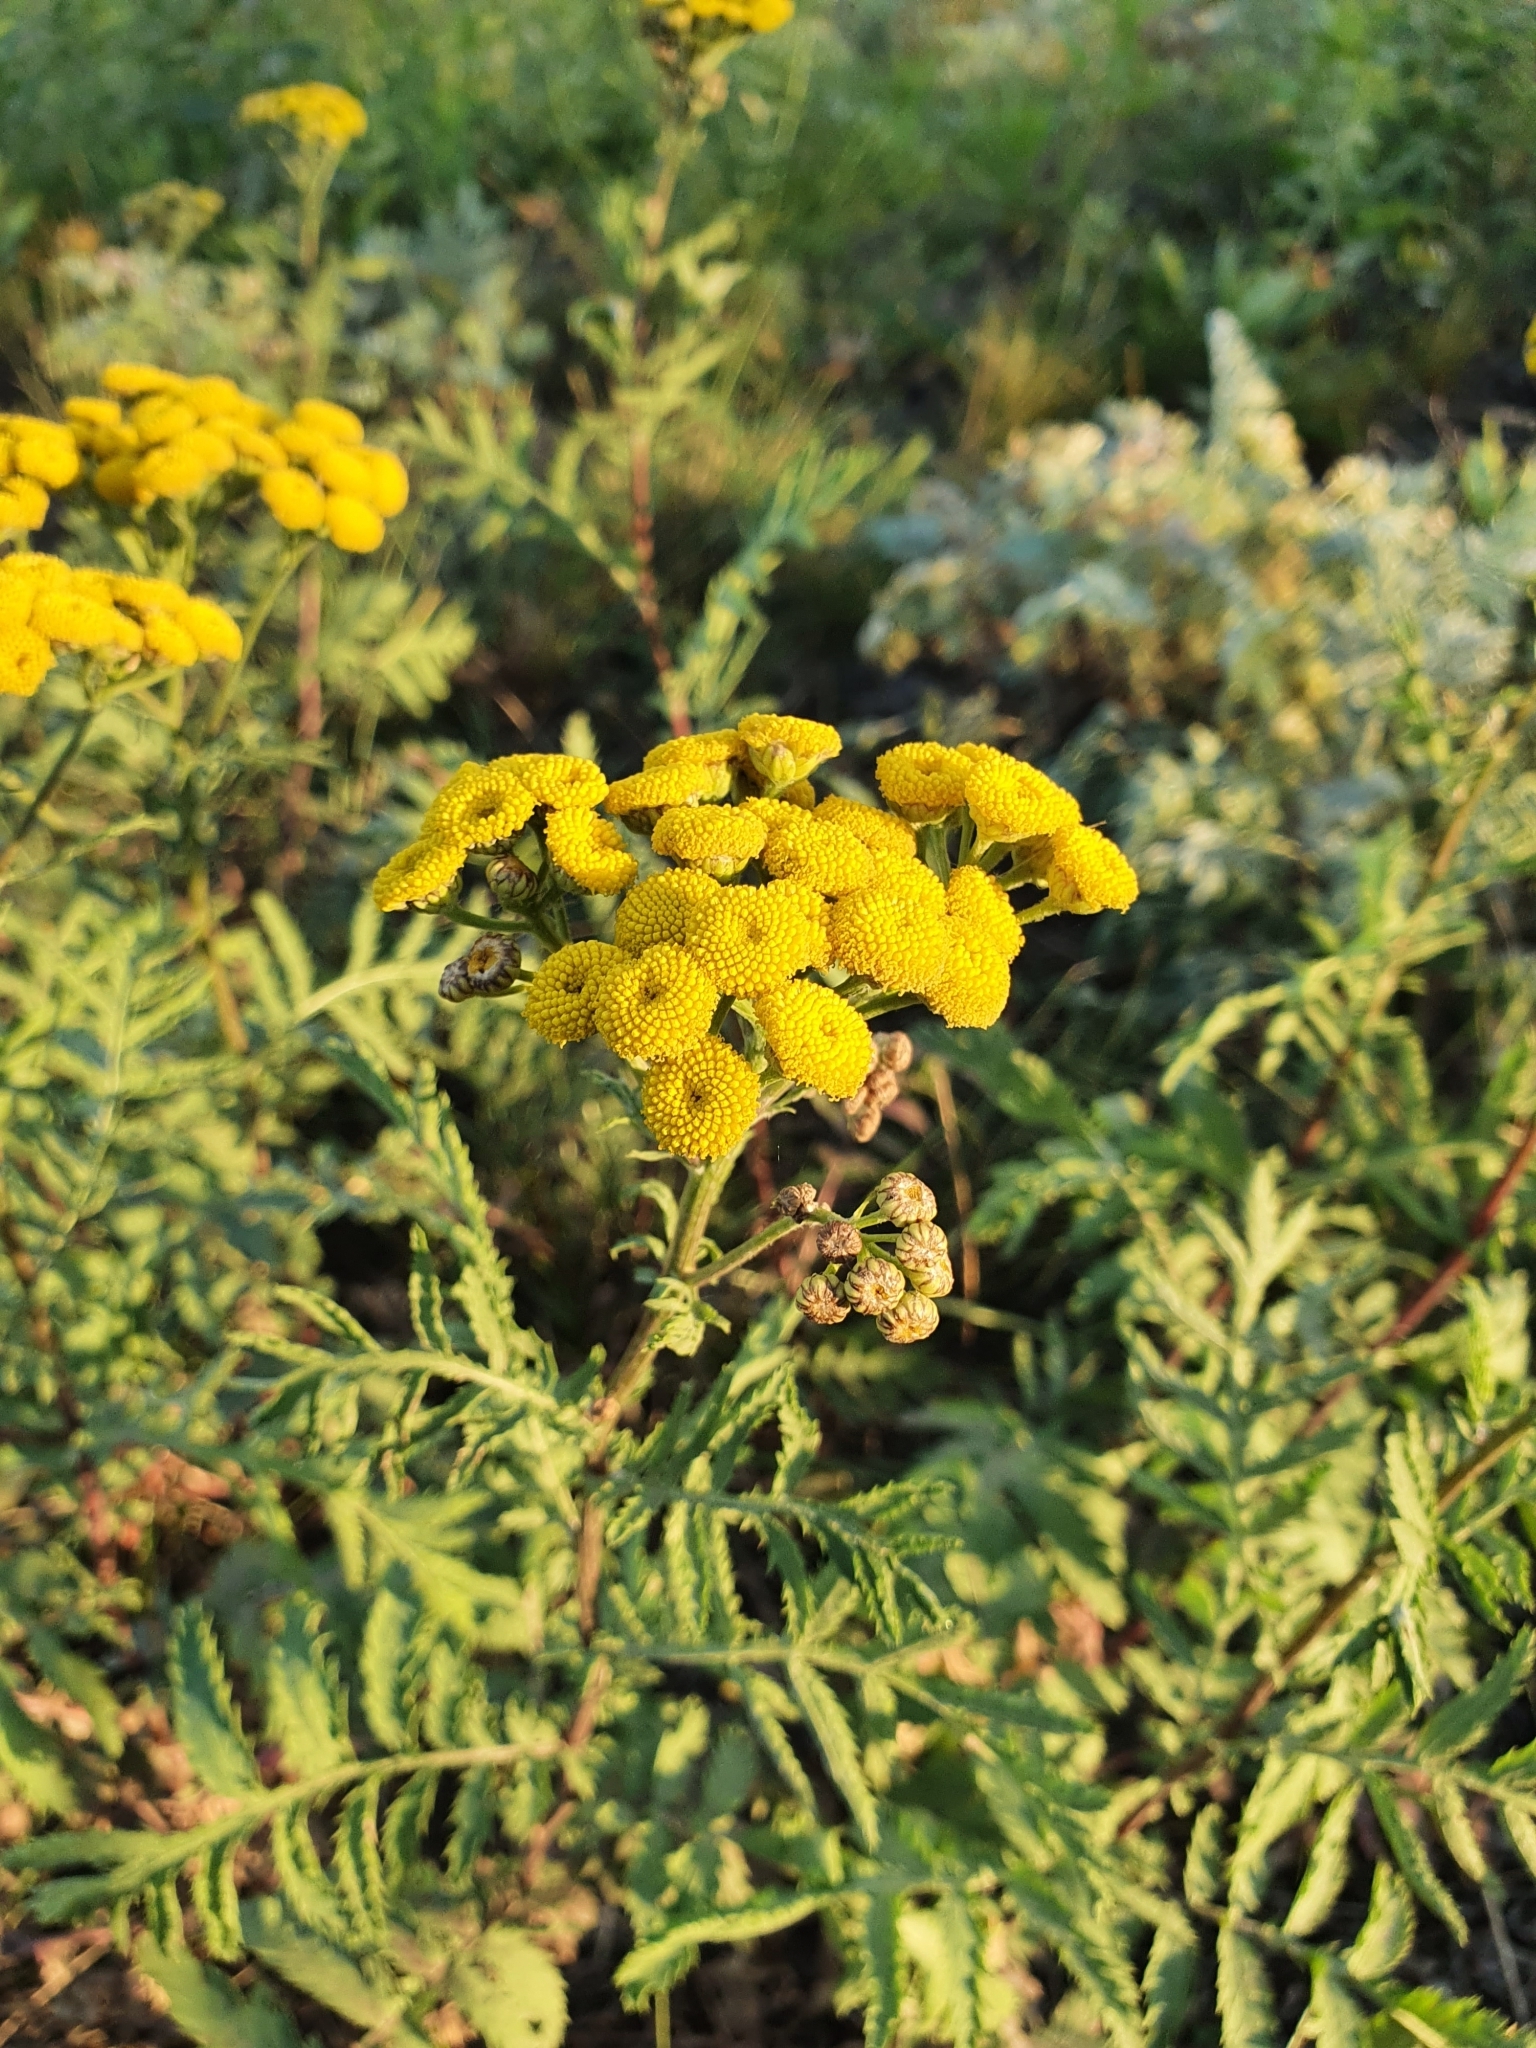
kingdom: Plantae
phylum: Tracheophyta
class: Magnoliopsida
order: Asterales
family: Asteraceae
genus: Tanacetum
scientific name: Tanacetum vulgare
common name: Common tansy
